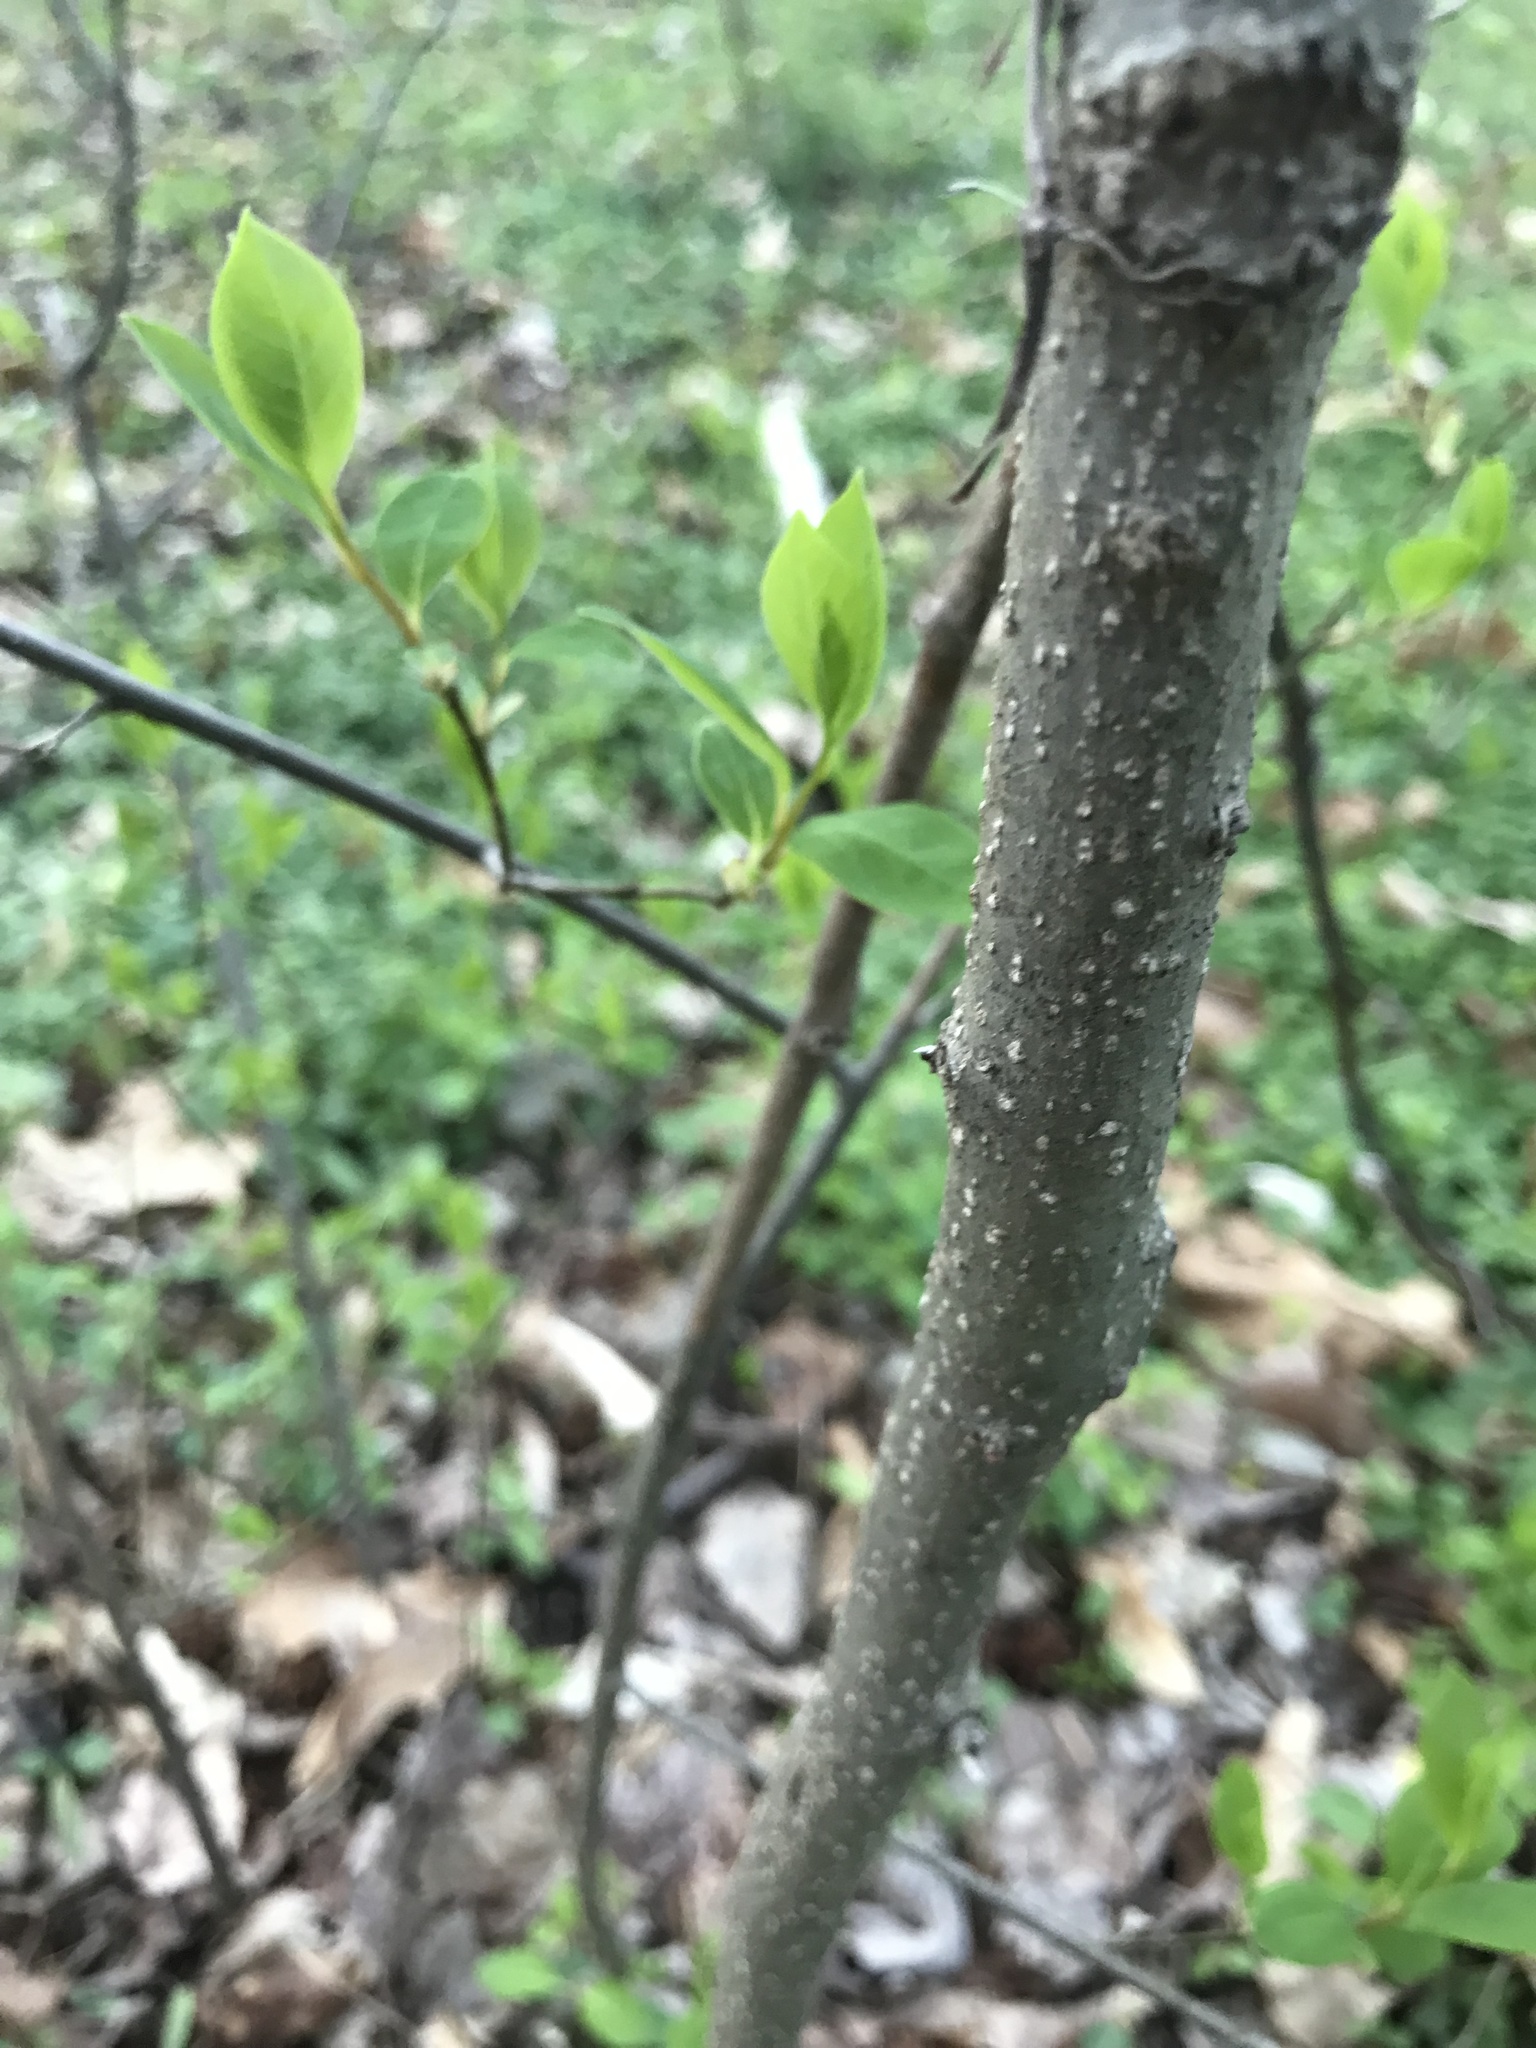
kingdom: Plantae
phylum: Tracheophyta
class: Magnoliopsida
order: Laurales
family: Lauraceae
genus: Lindera
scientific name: Lindera benzoin
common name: Spicebush
